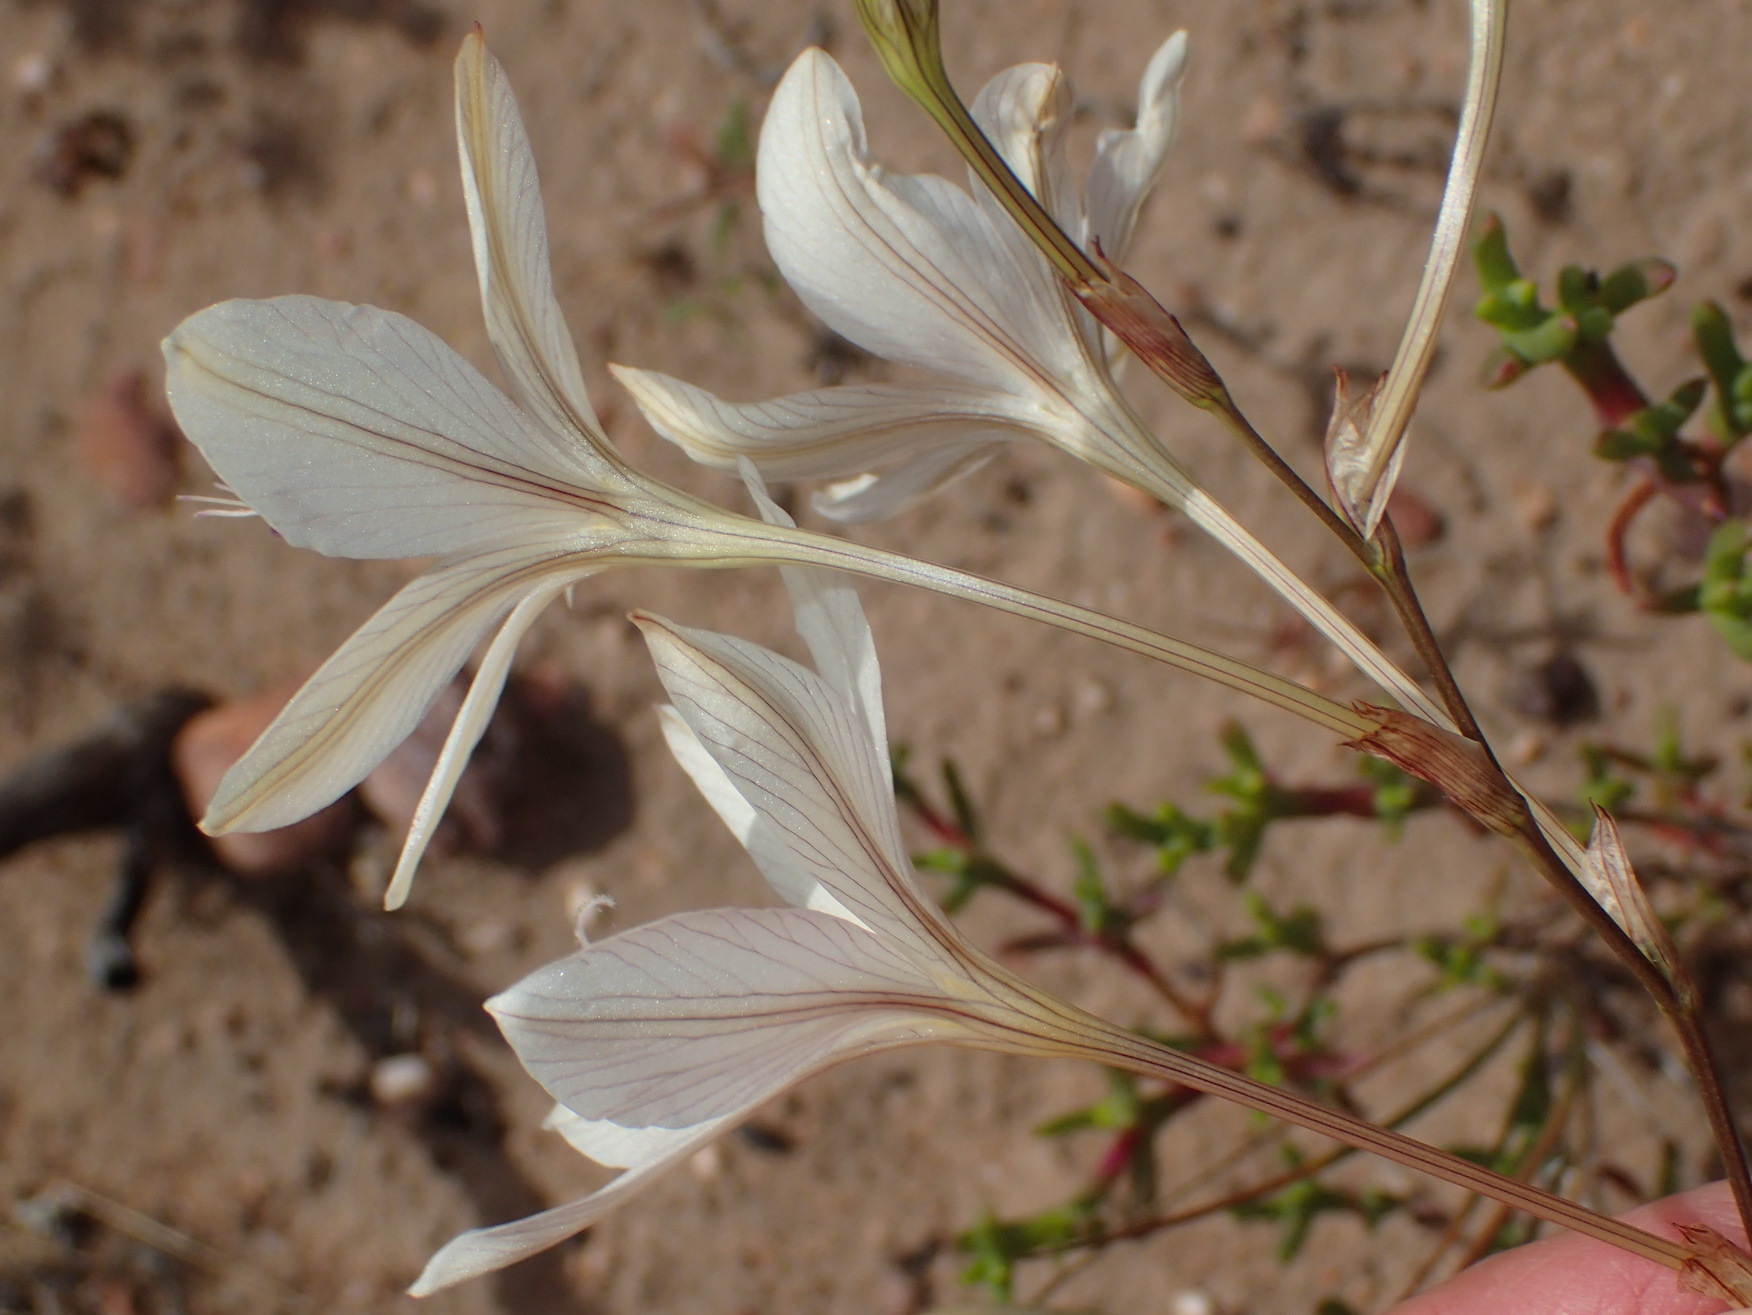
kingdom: Plantae
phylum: Tracheophyta
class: Liliopsida
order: Asparagales
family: Iridaceae
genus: Tritonia
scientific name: Tritonia bakeri
